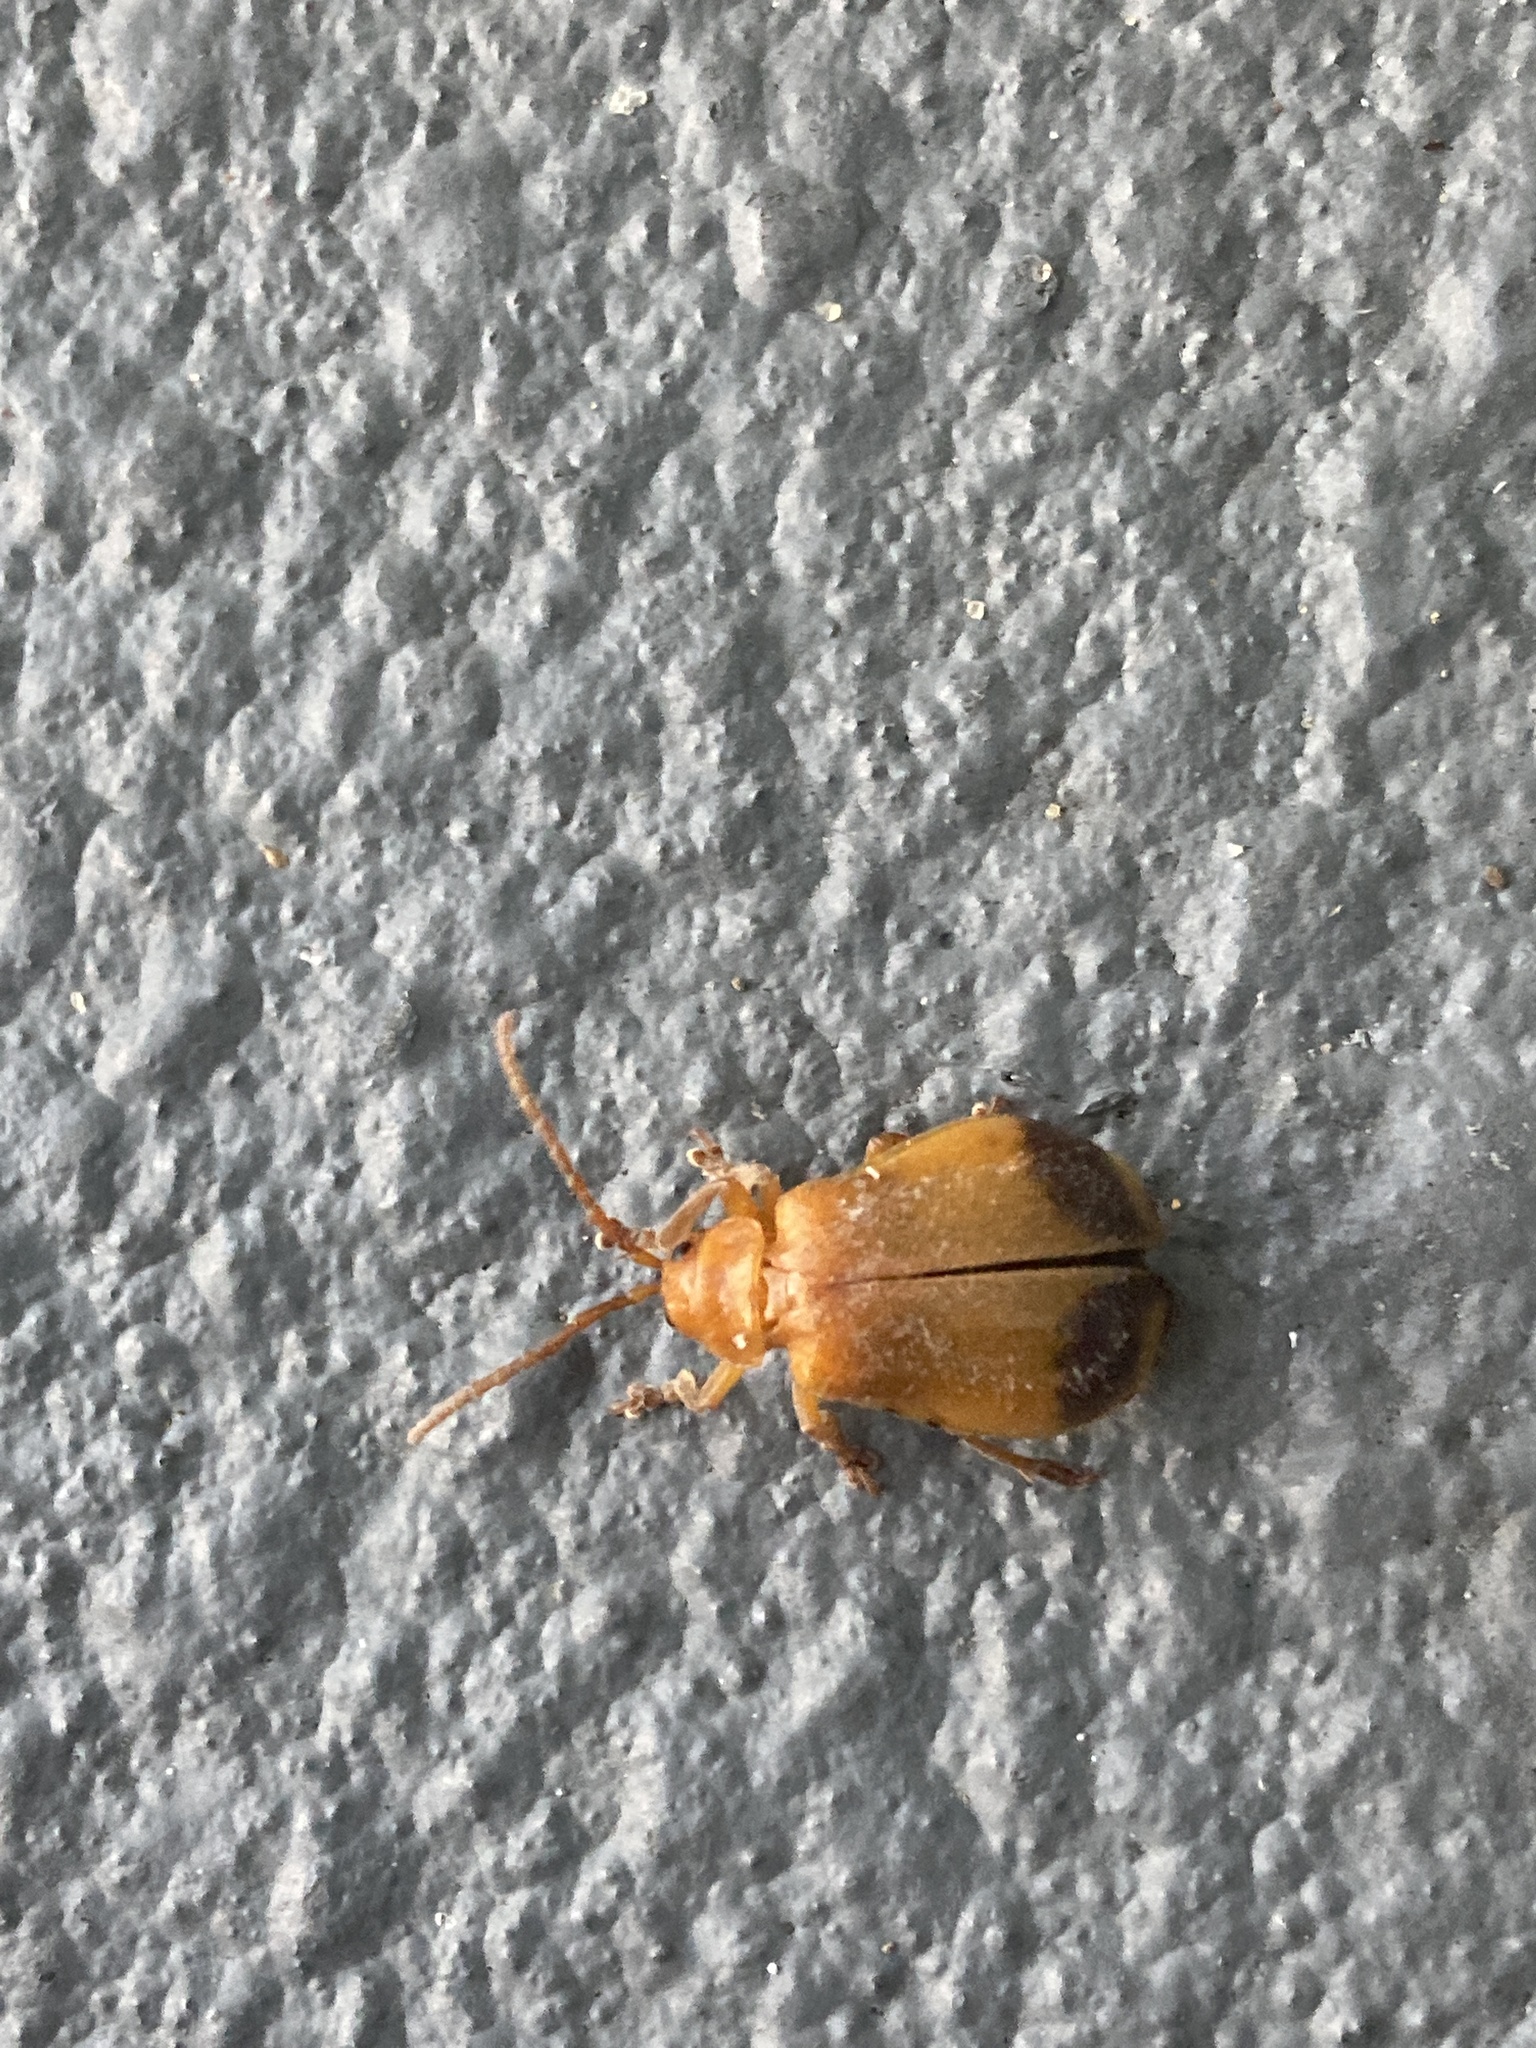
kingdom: Animalia
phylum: Arthropoda
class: Insecta
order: Coleoptera
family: Chrysomelidae
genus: Monocesta
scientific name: Monocesta coryli
